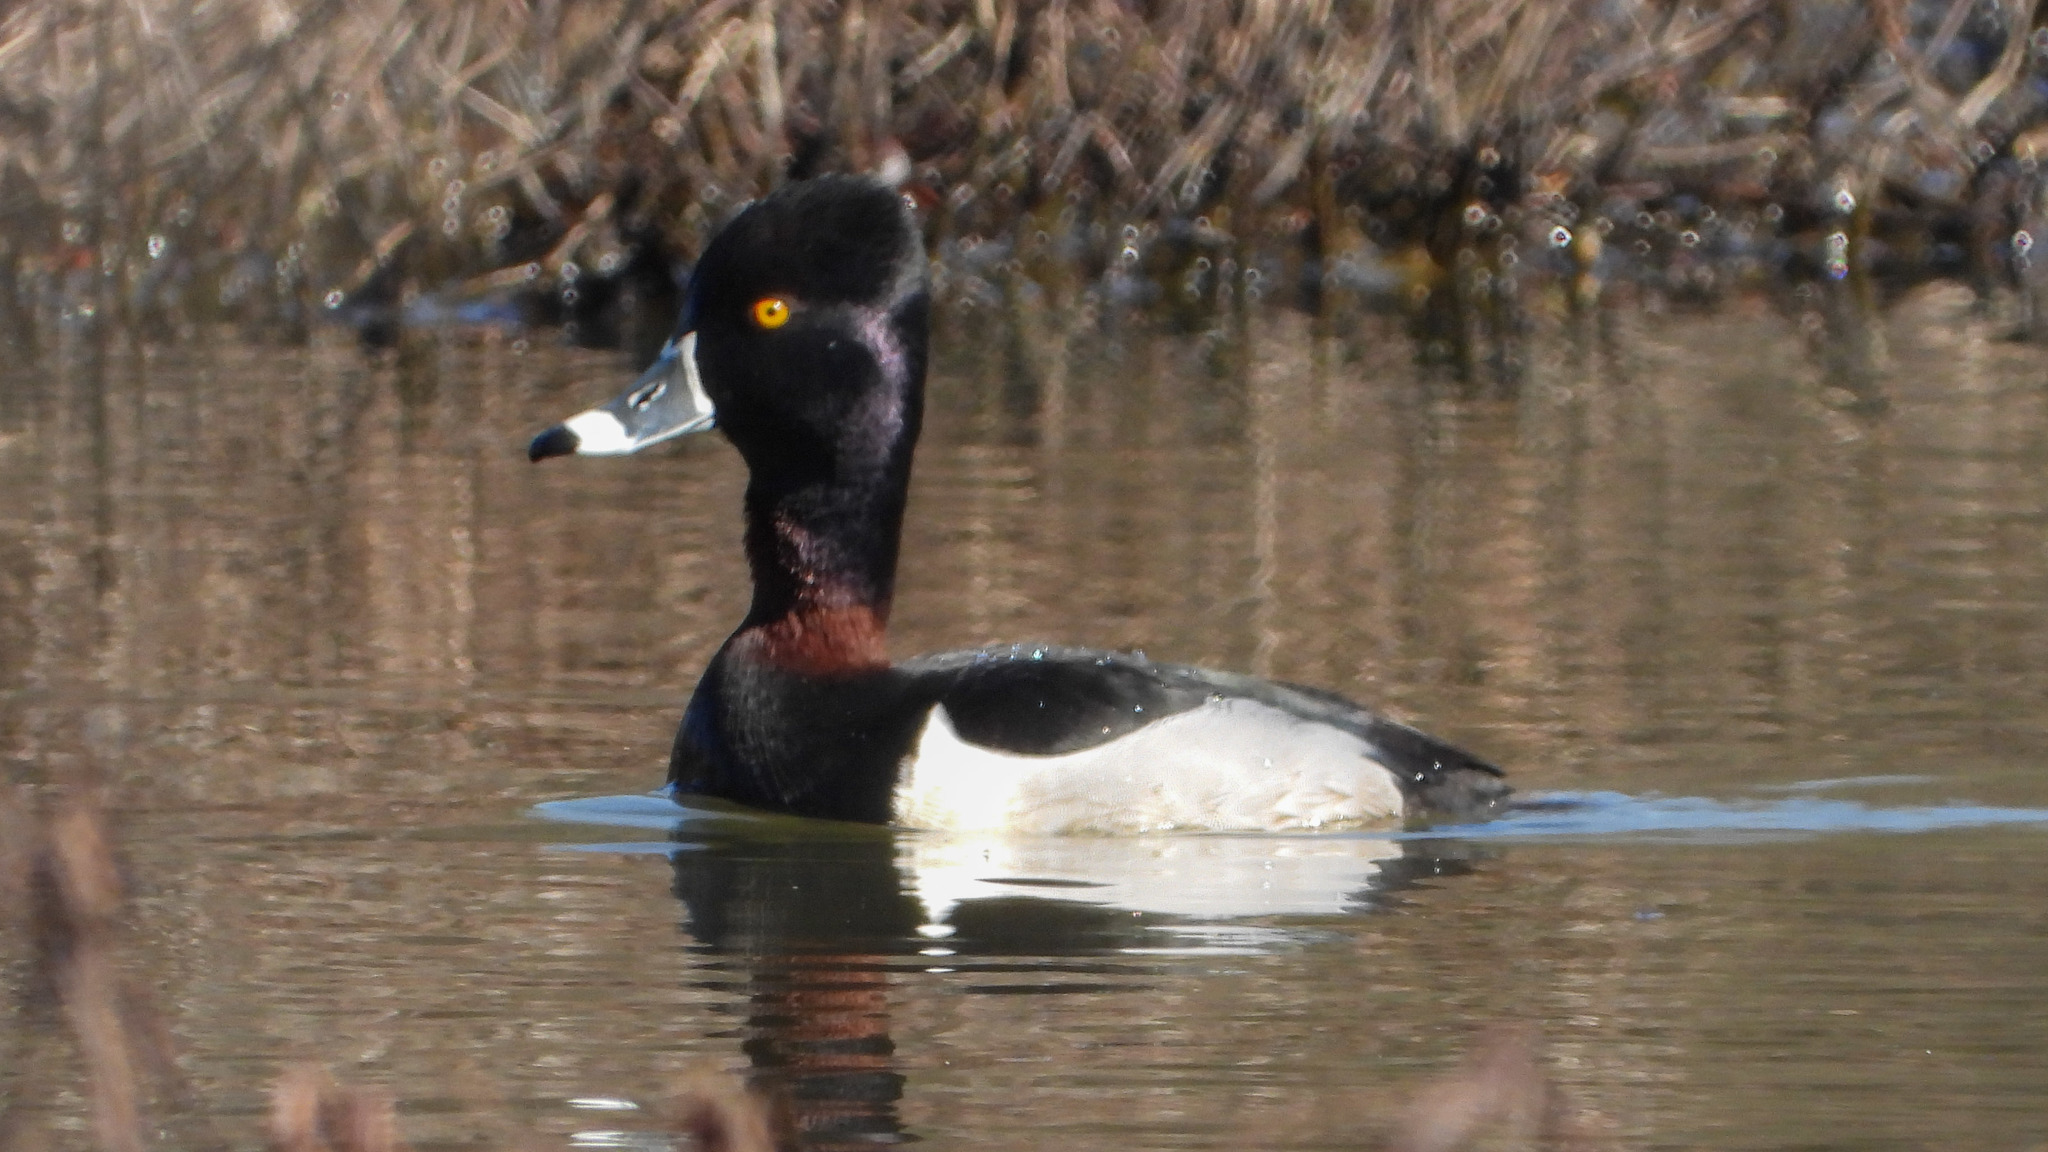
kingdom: Animalia
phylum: Chordata
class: Aves
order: Anseriformes
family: Anatidae
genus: Aythya
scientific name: Aythya collaris
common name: Ring-necked duck
